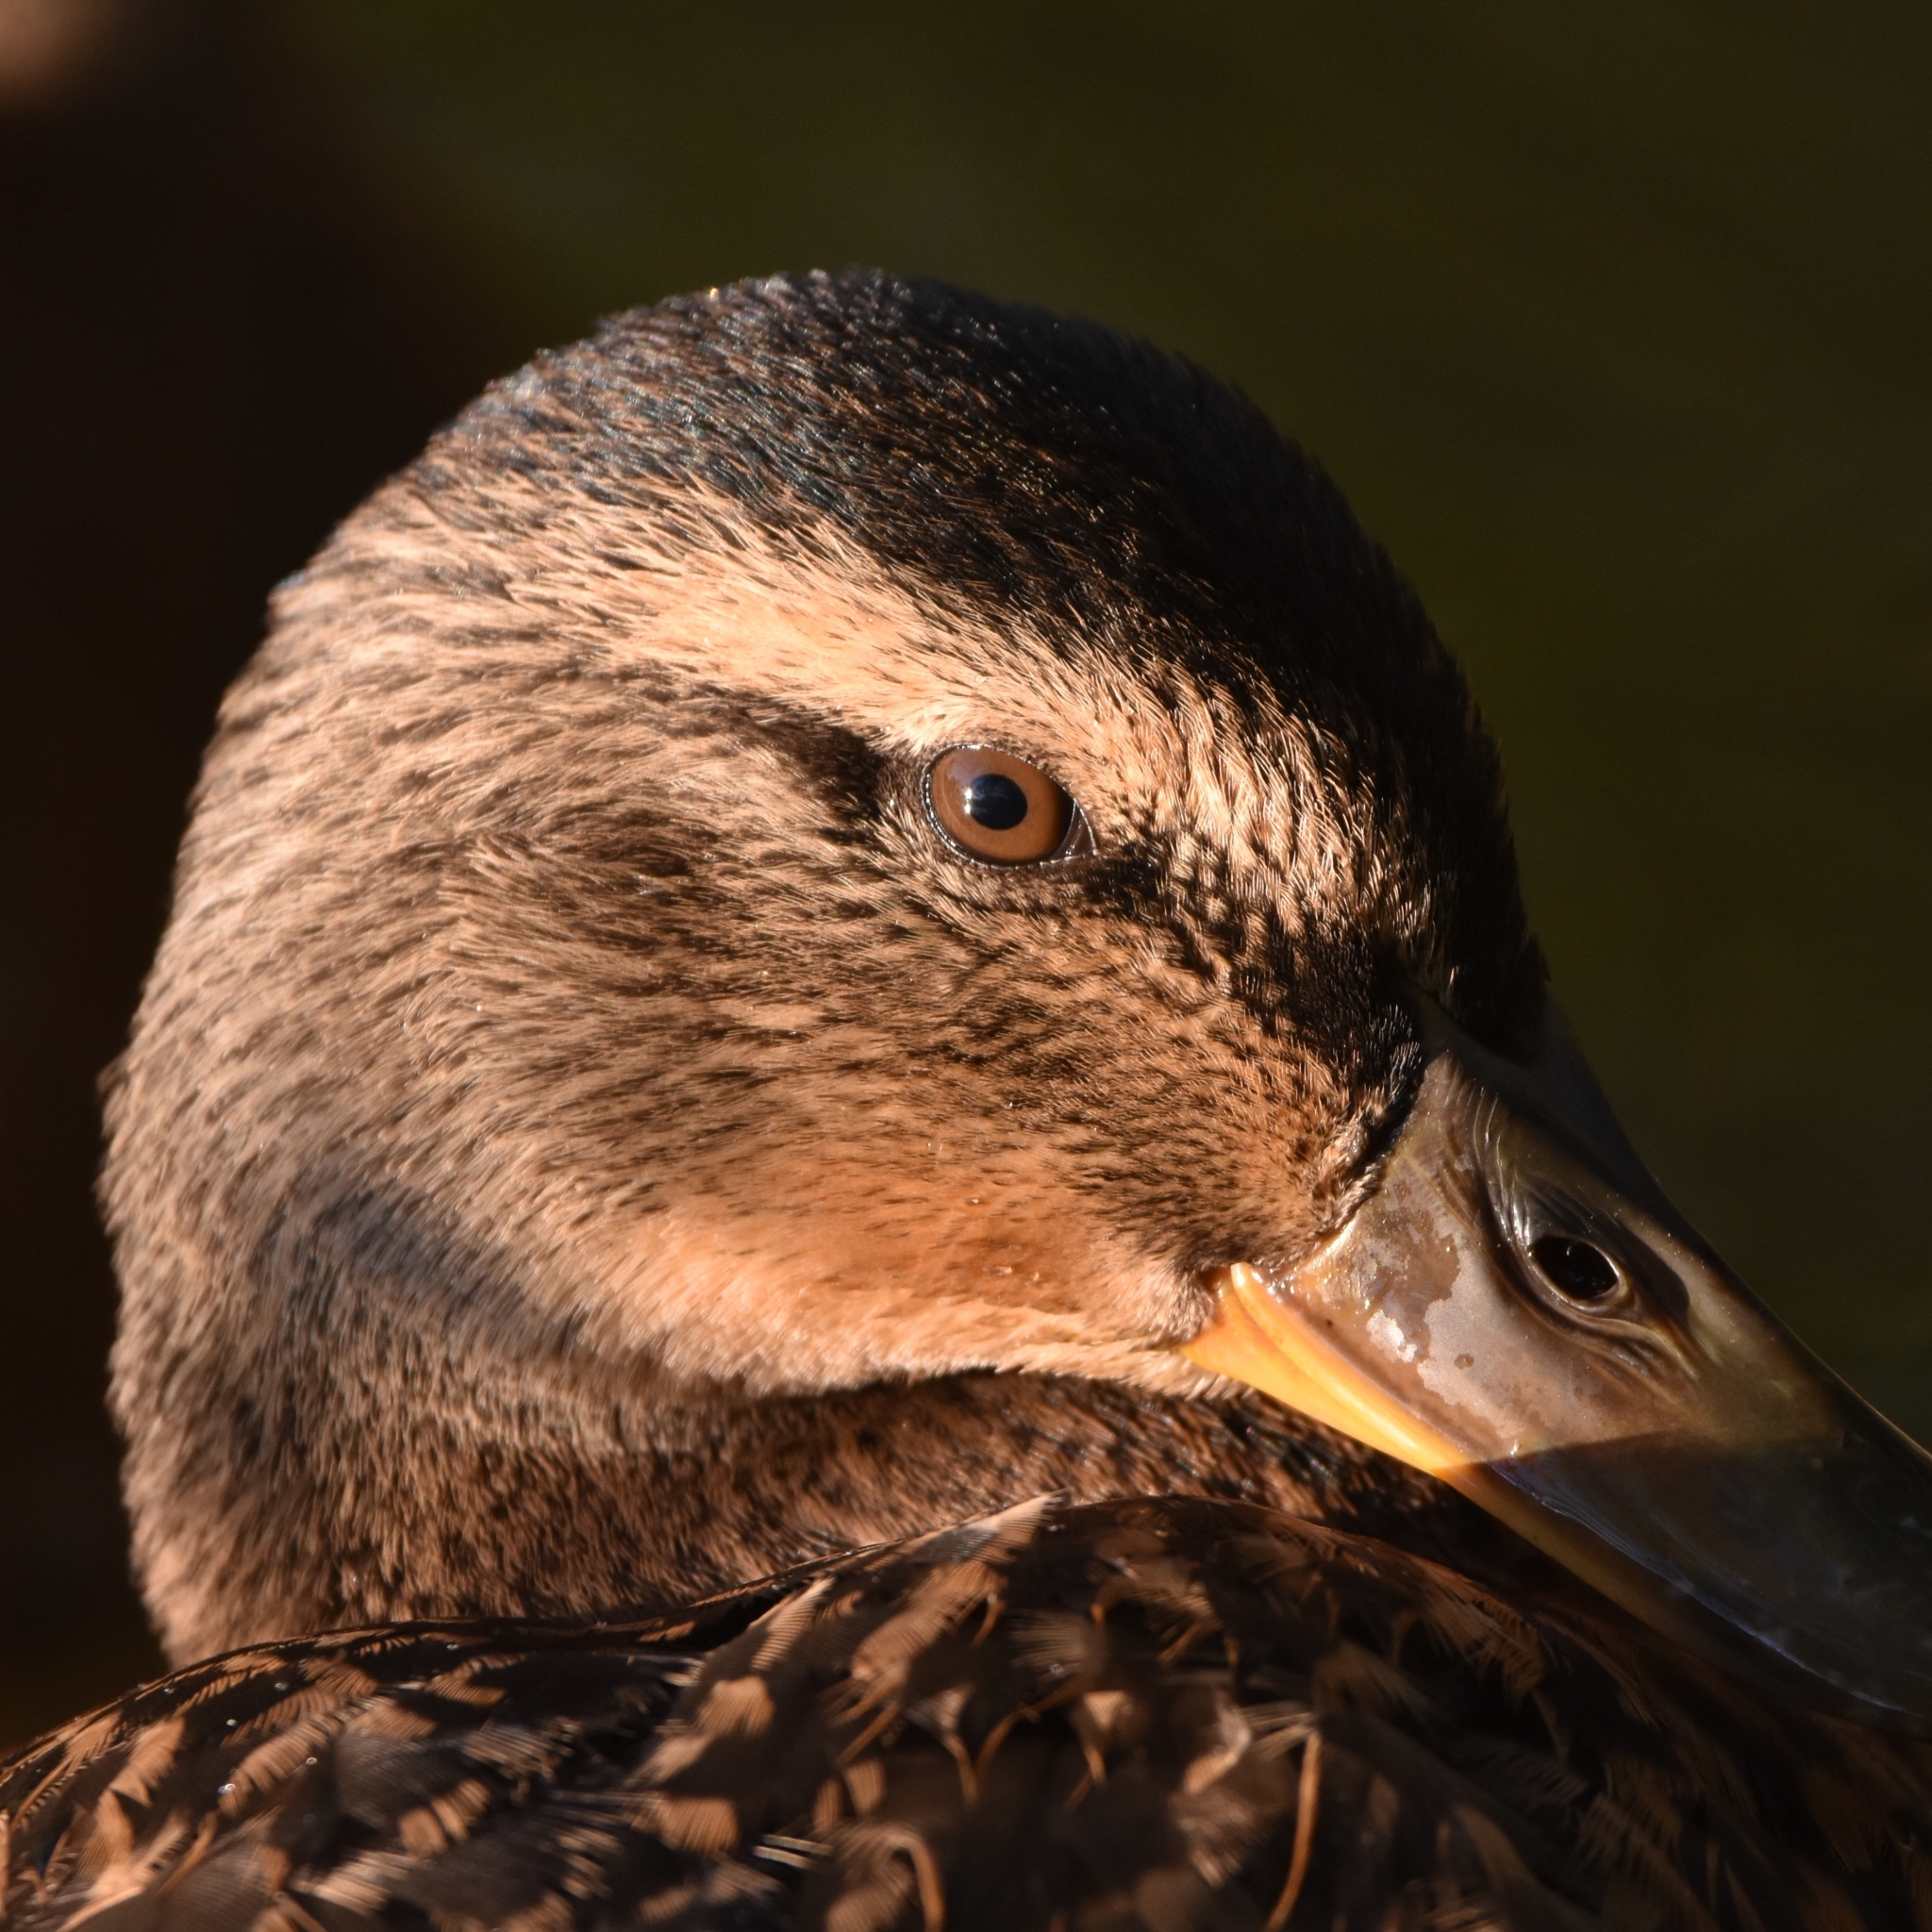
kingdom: Animalia
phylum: Chordata
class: Aves
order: Anseriformes
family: Anatidae
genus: Anas
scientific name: Anas platyrhynchos
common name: Mallard
